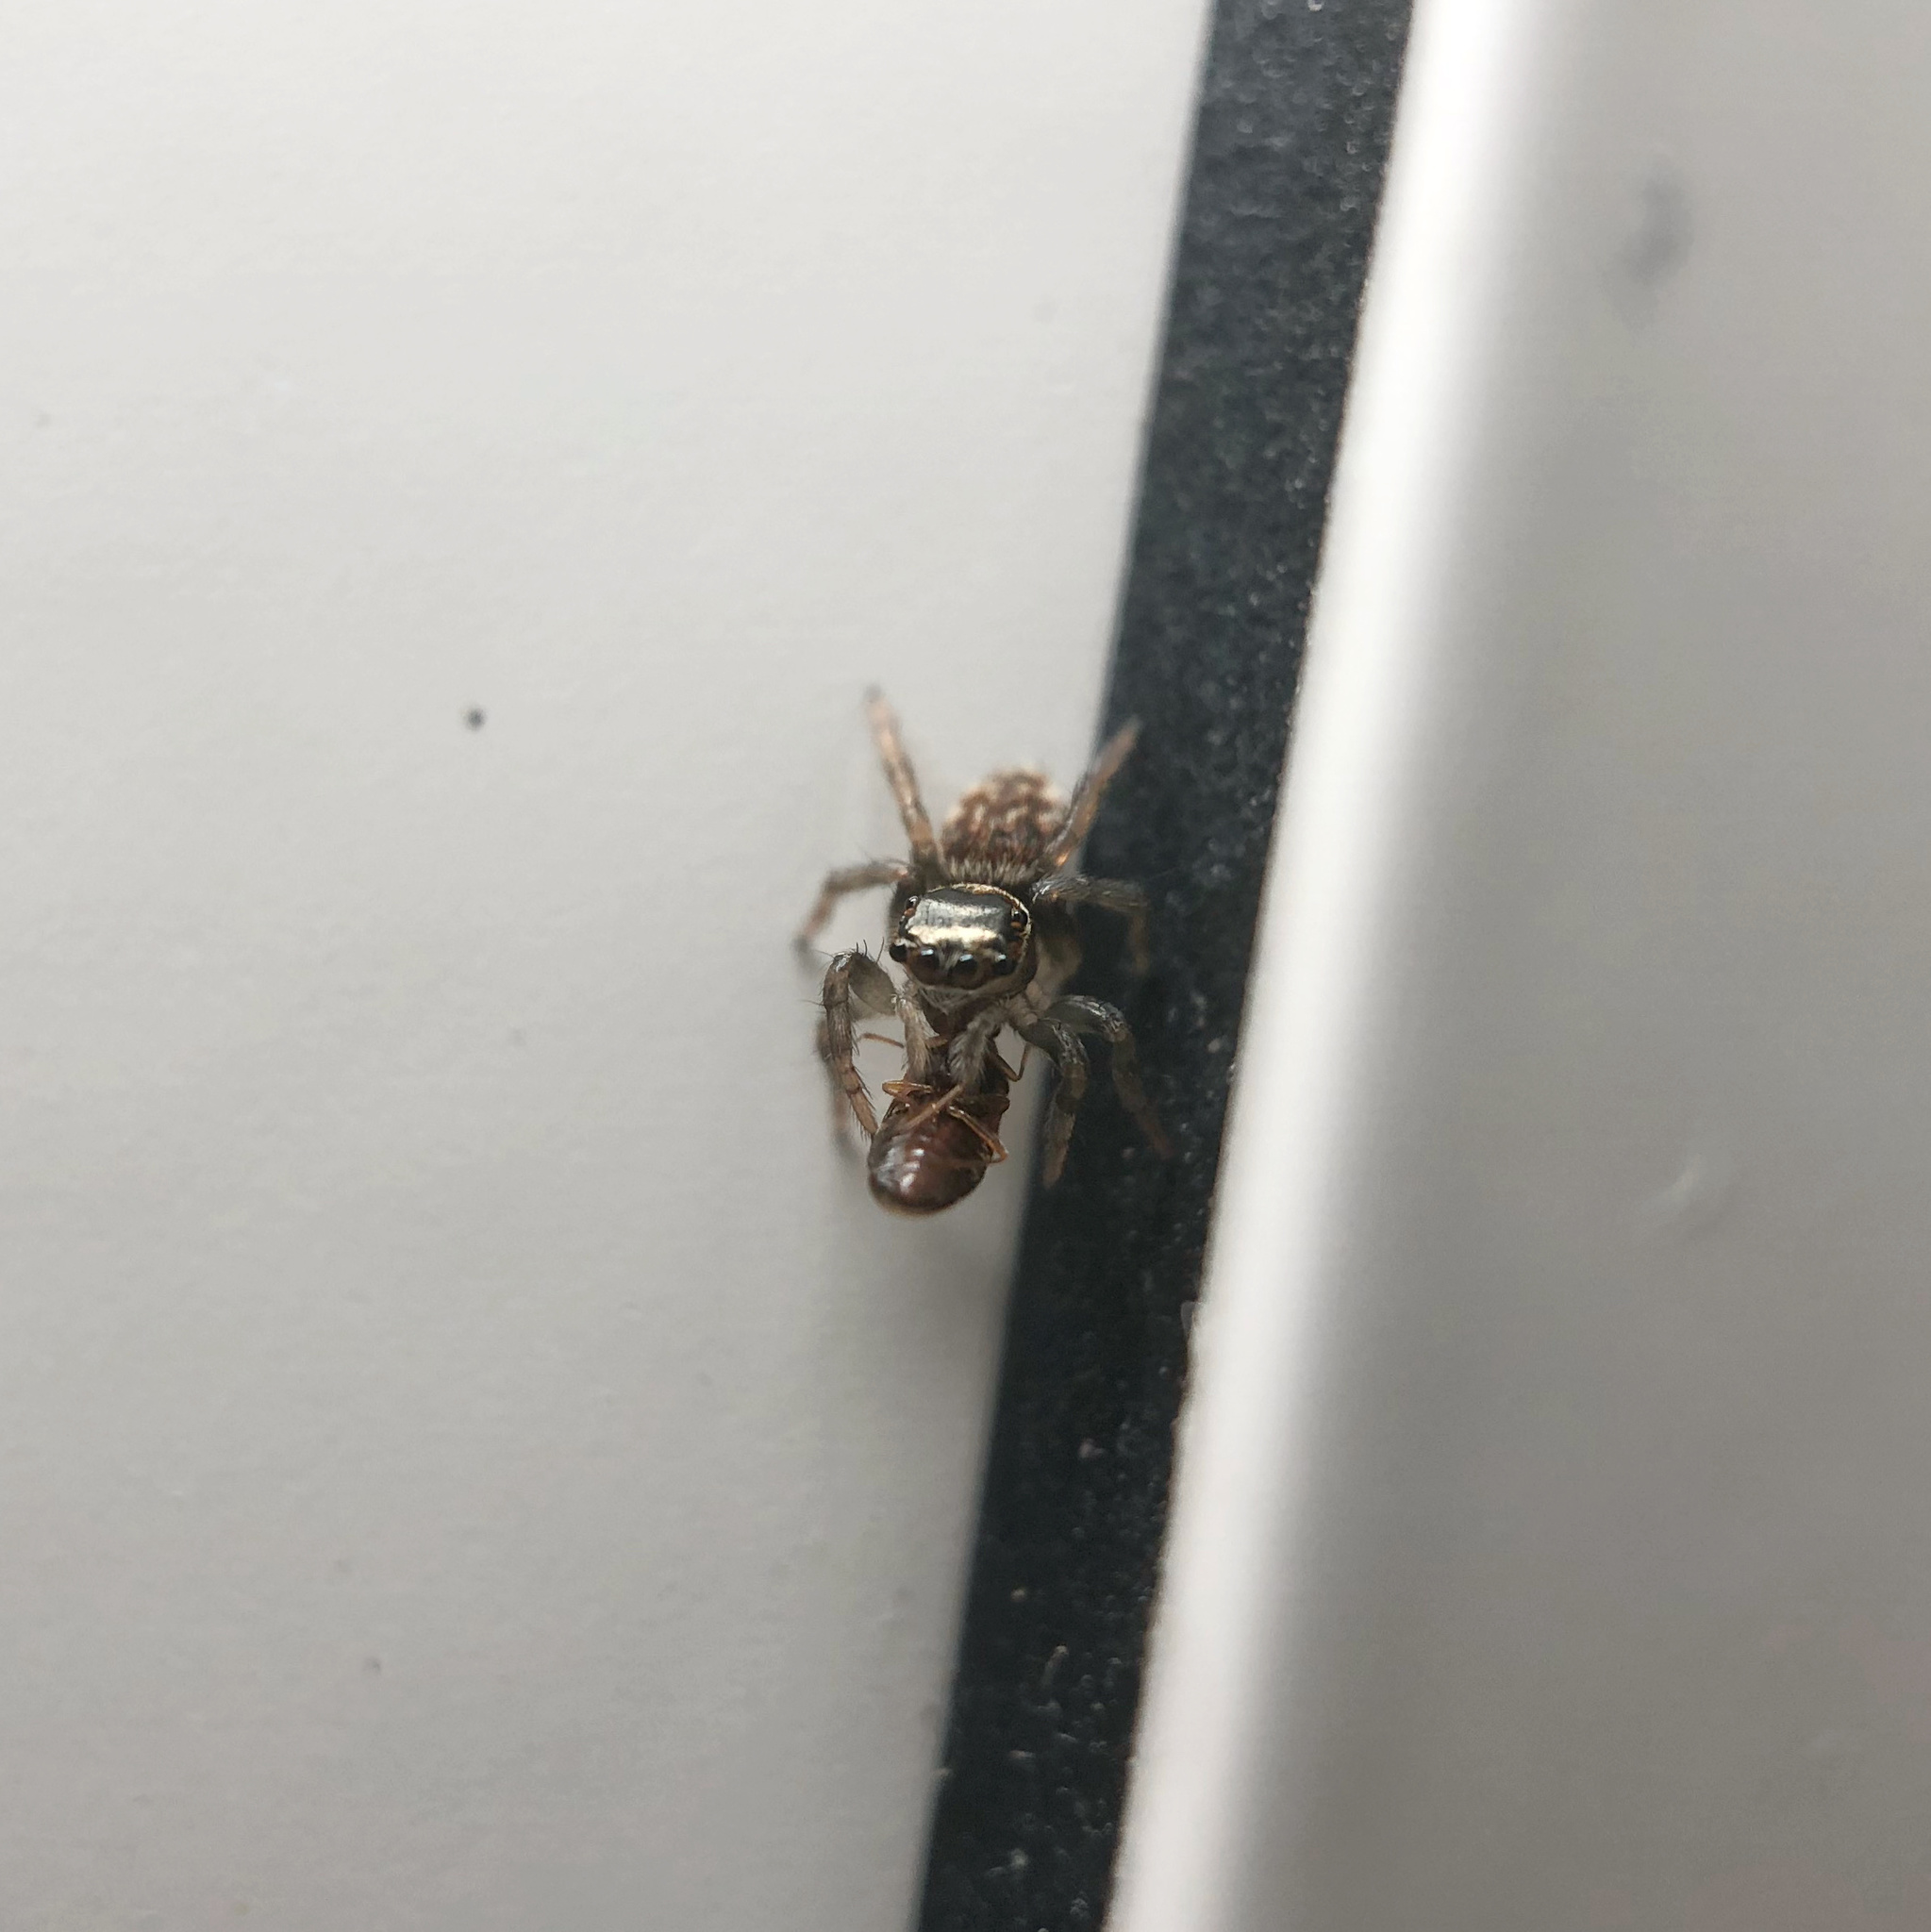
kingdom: Animalia
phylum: Arthropoda
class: Arachnida
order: Araneae
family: Salticidae
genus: Maratus
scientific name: Maratus griseus
